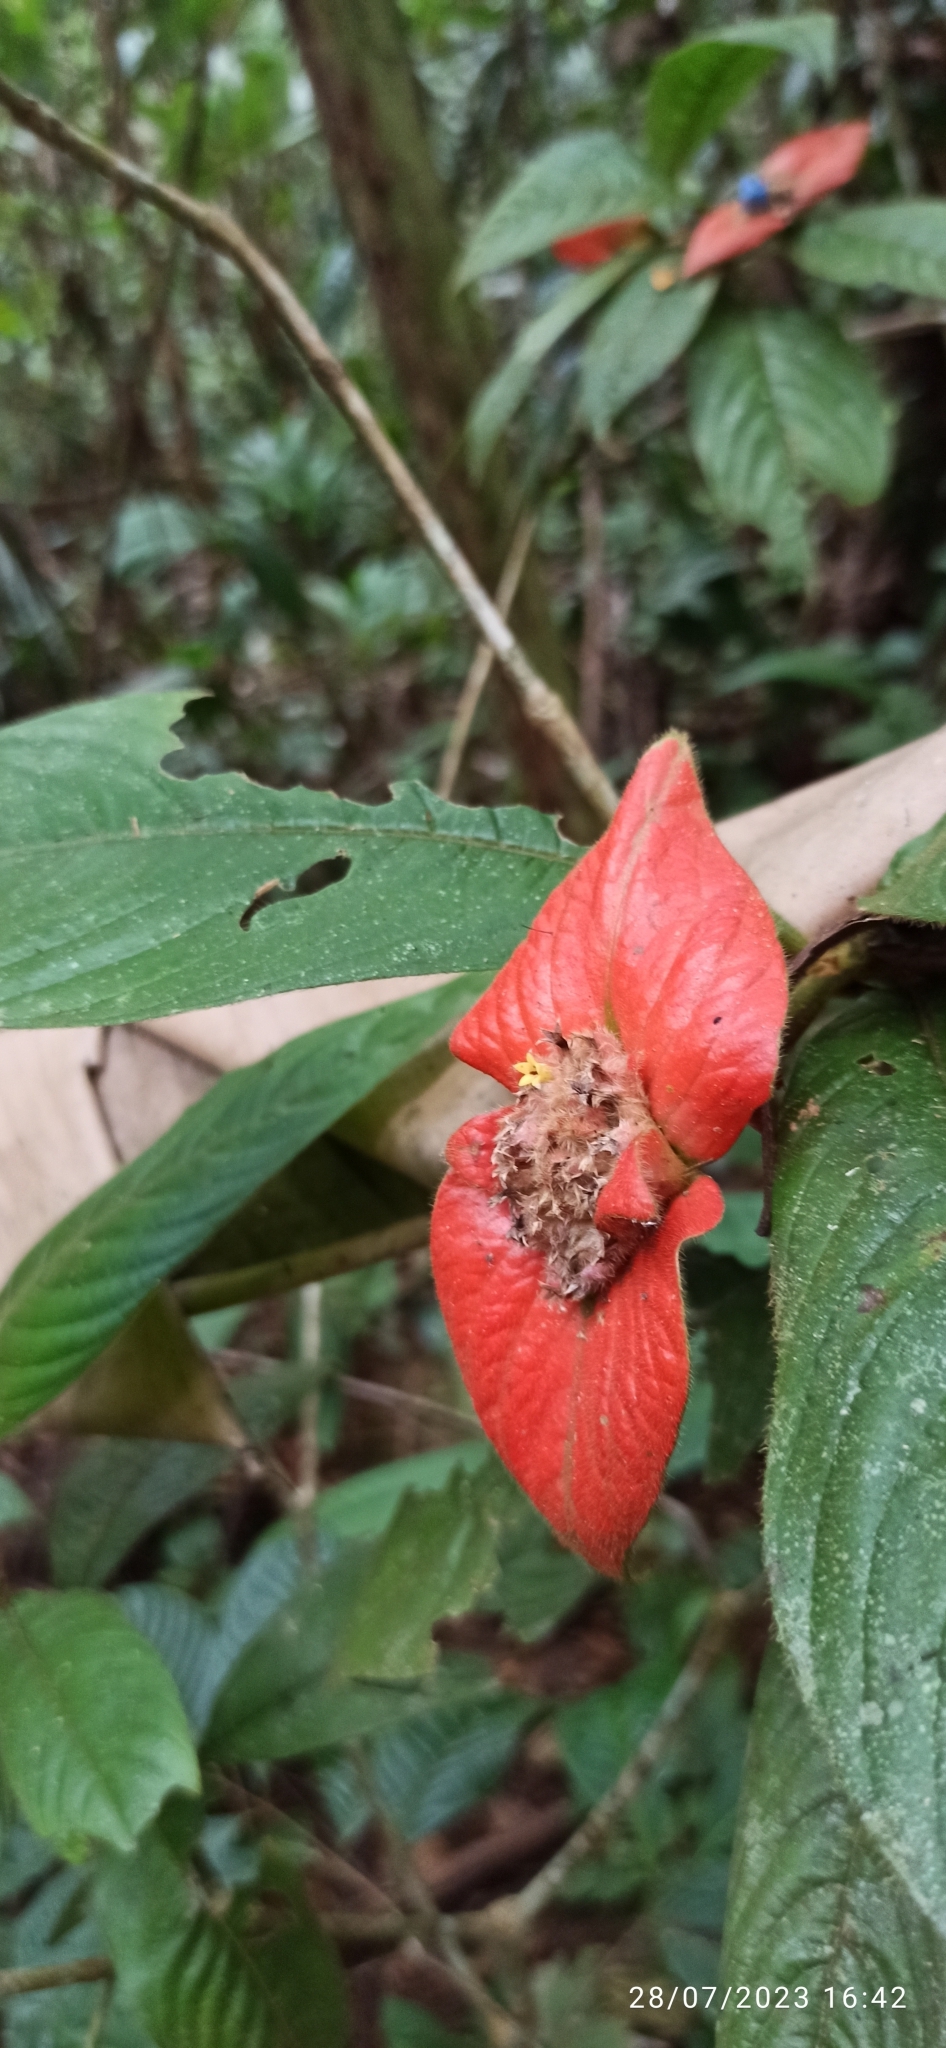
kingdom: Plantae
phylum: Tracheophyta
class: Magnoliopsida
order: Gentianales
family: Rubiaceae
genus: Palicourea
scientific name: Palicourea tomentosa
